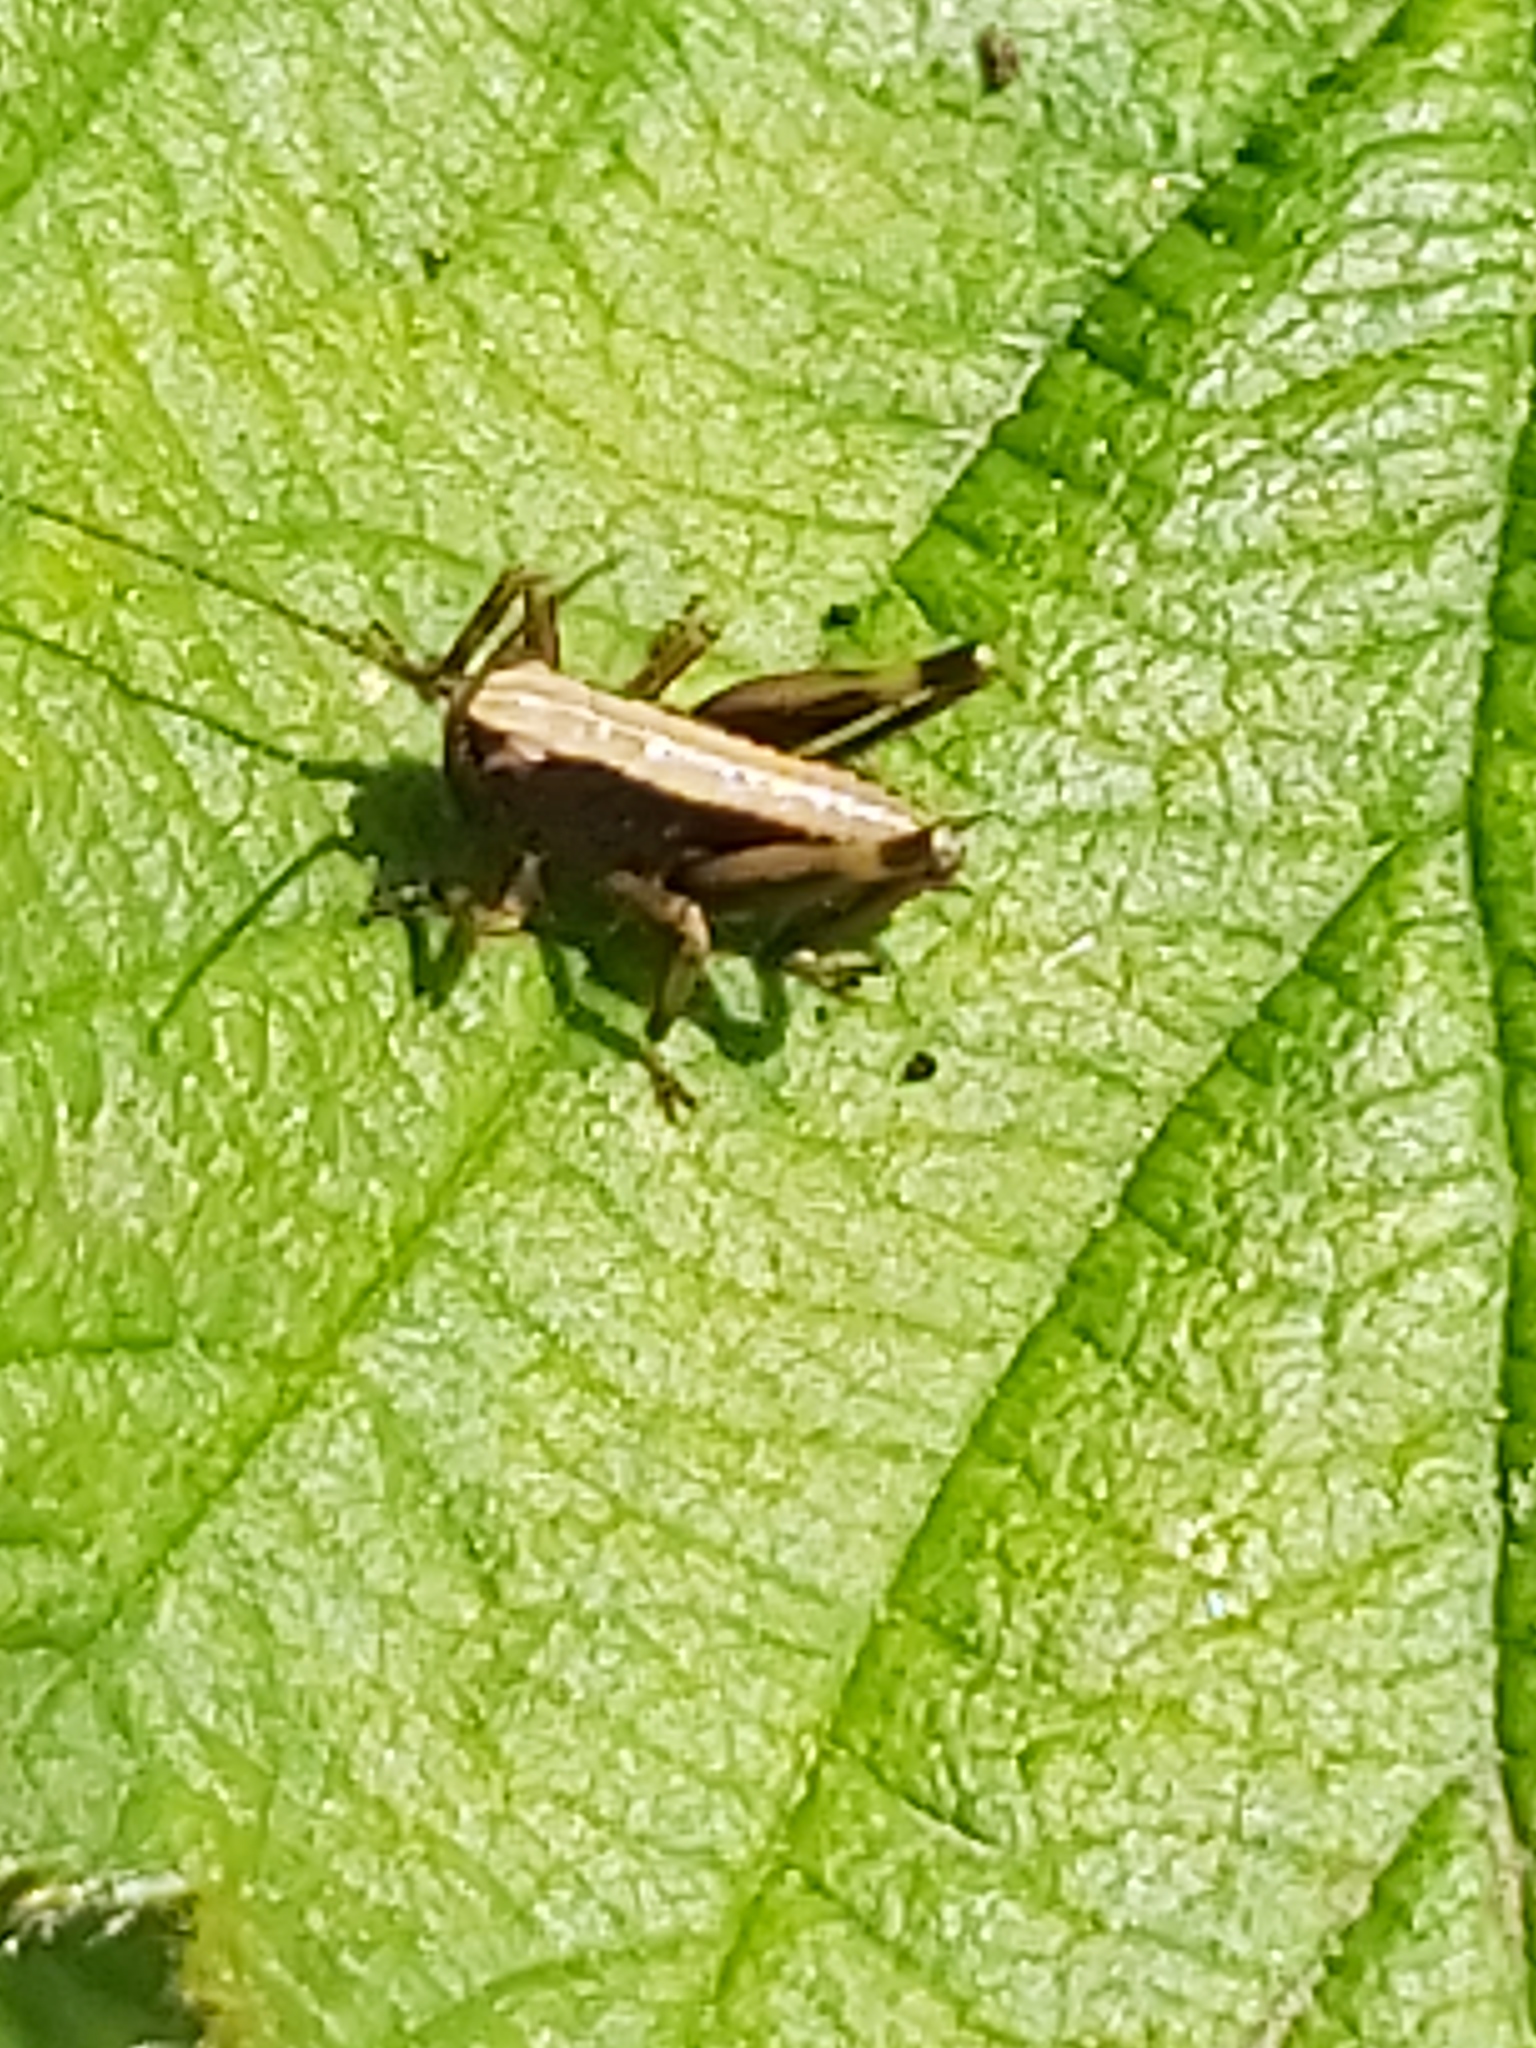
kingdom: Animalia
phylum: Arthropoda
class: Insecta
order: Orthoptera
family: Tettigoniidae
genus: Pholidoptera
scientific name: Pholidoptera griseoaptera
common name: Dark bush-cricket
